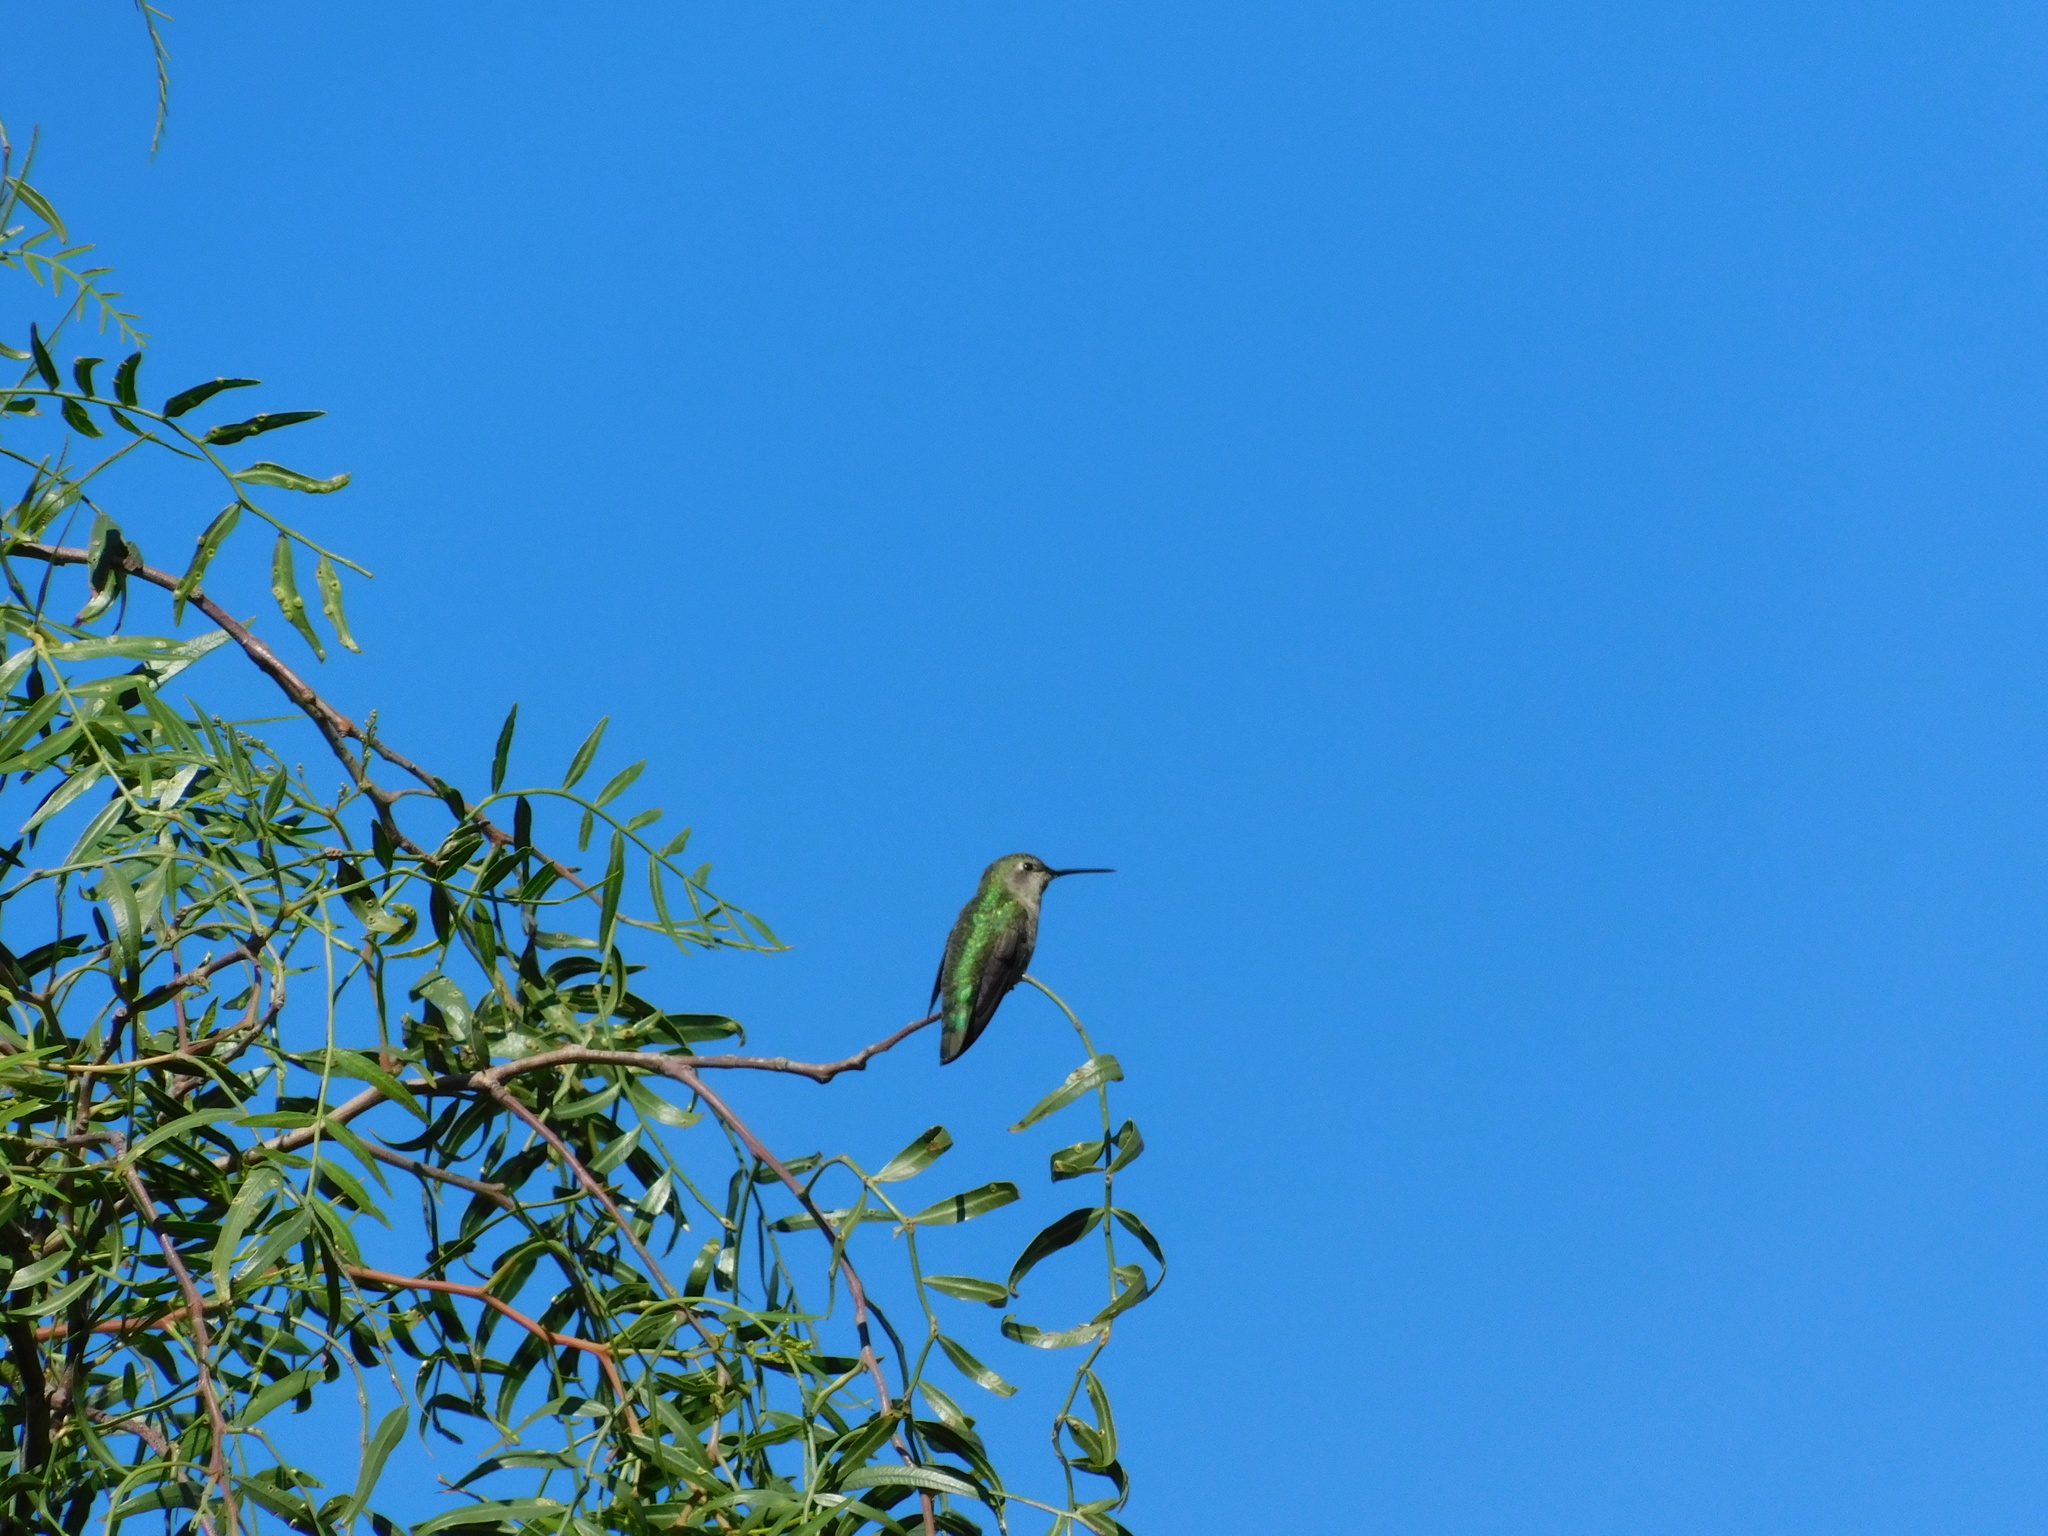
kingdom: Animalia
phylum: Chordata
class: Aves
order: Apodiformes
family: Trochilidae
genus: Calypte
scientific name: Calypte anna
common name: Anna's hummingbird
